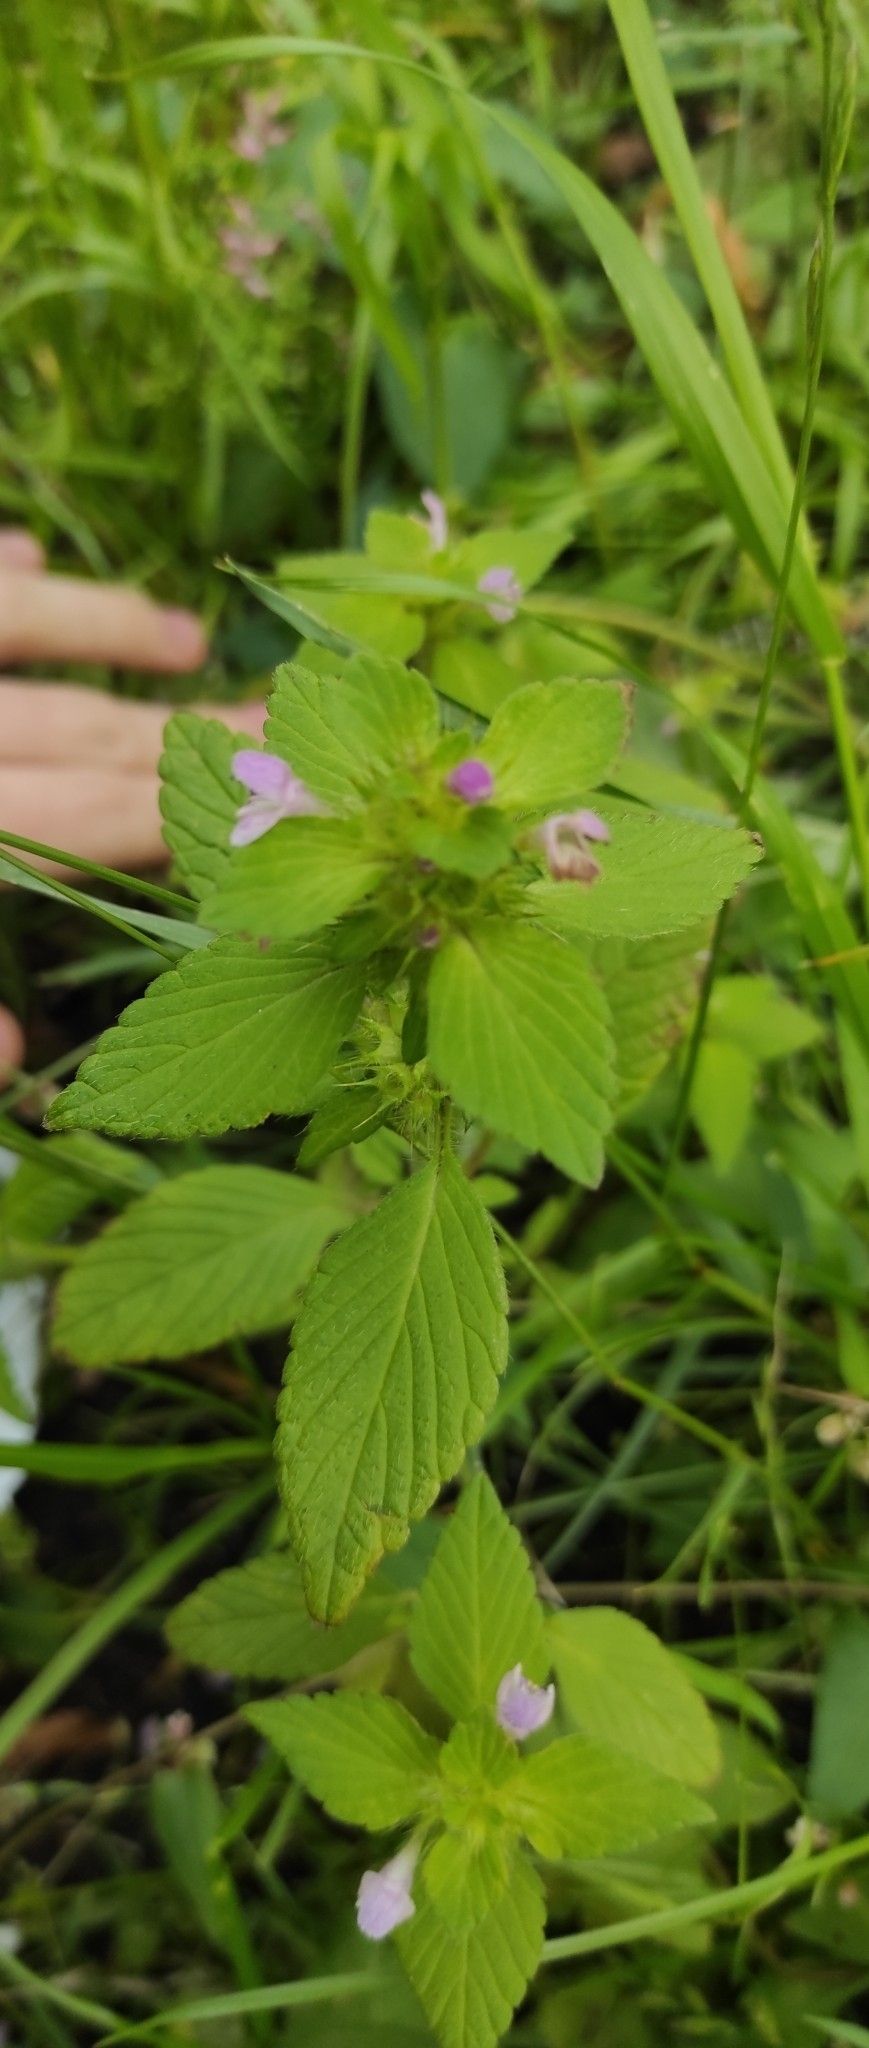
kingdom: Plantae
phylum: Tracheophyta
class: Magnoliopsida
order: Lamiales
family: Lamiaceae
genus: Galeopsis
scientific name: Galeopsis bifida
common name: Bifid hemp-nettle
